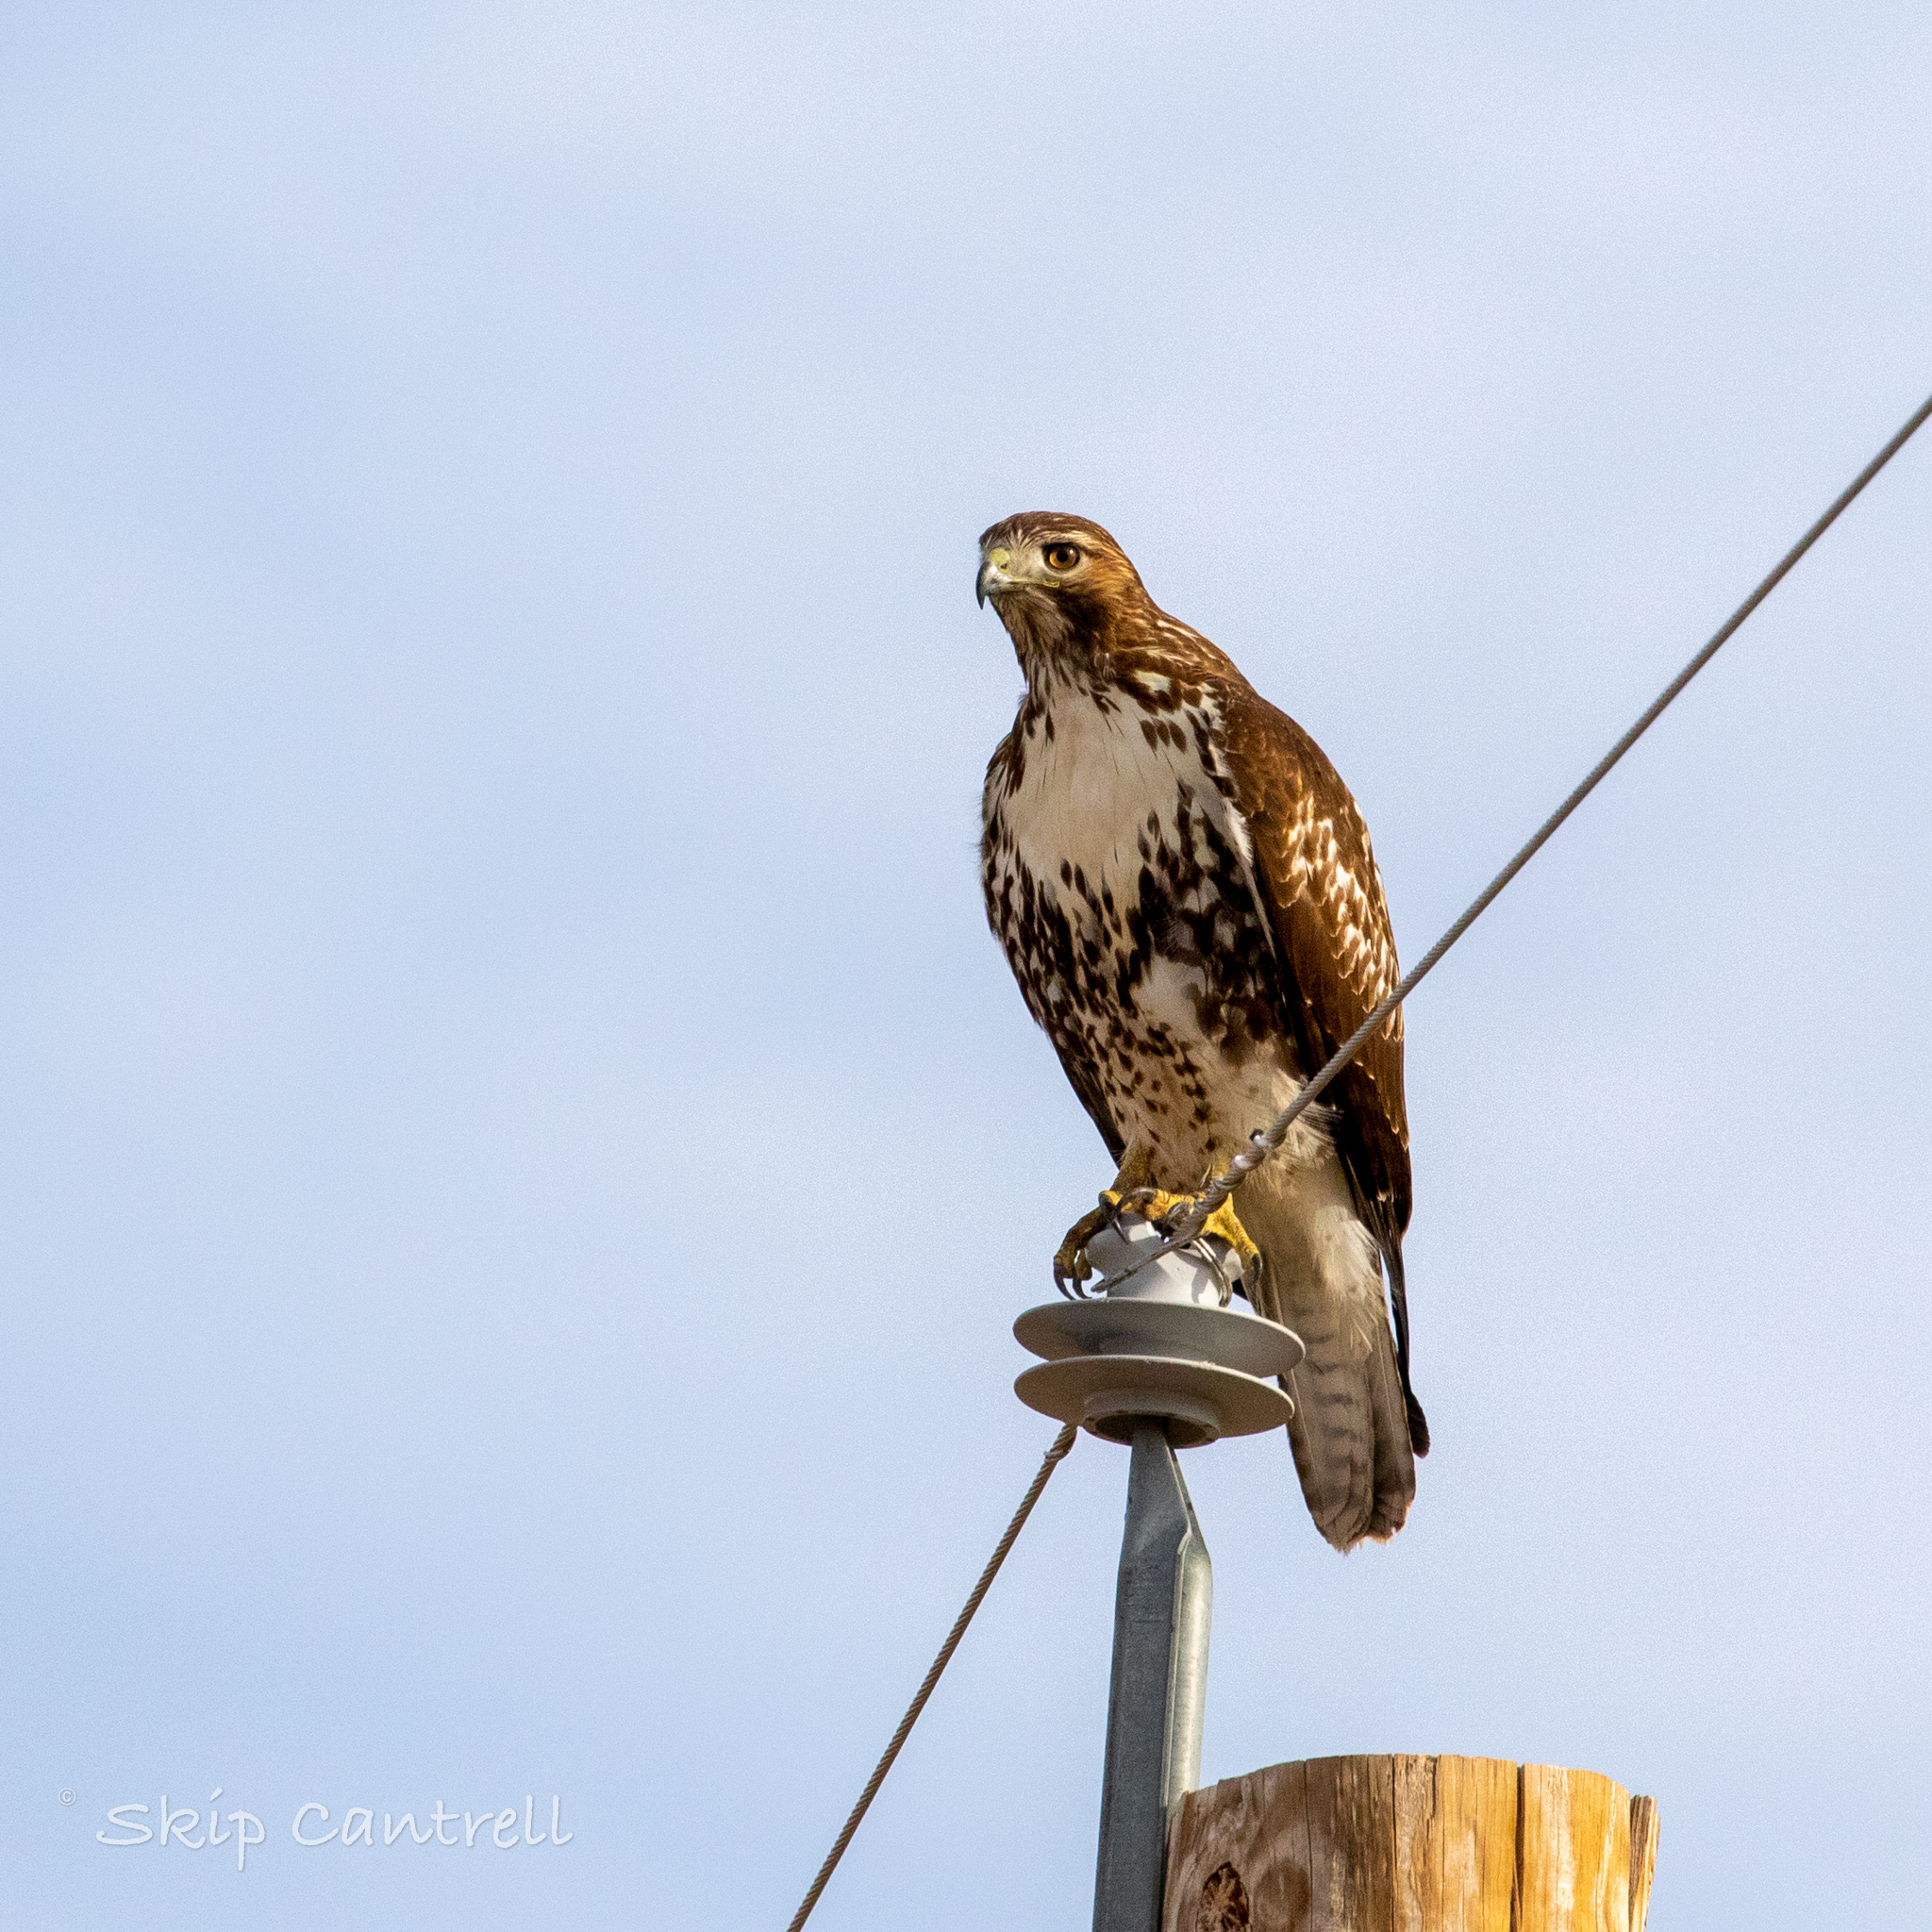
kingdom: Animalia
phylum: Chordata
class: Aves
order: Accipitriformes
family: Accipitridae
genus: Buteo
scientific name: Buteo jamaicensis
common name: Red-tailed hawk
